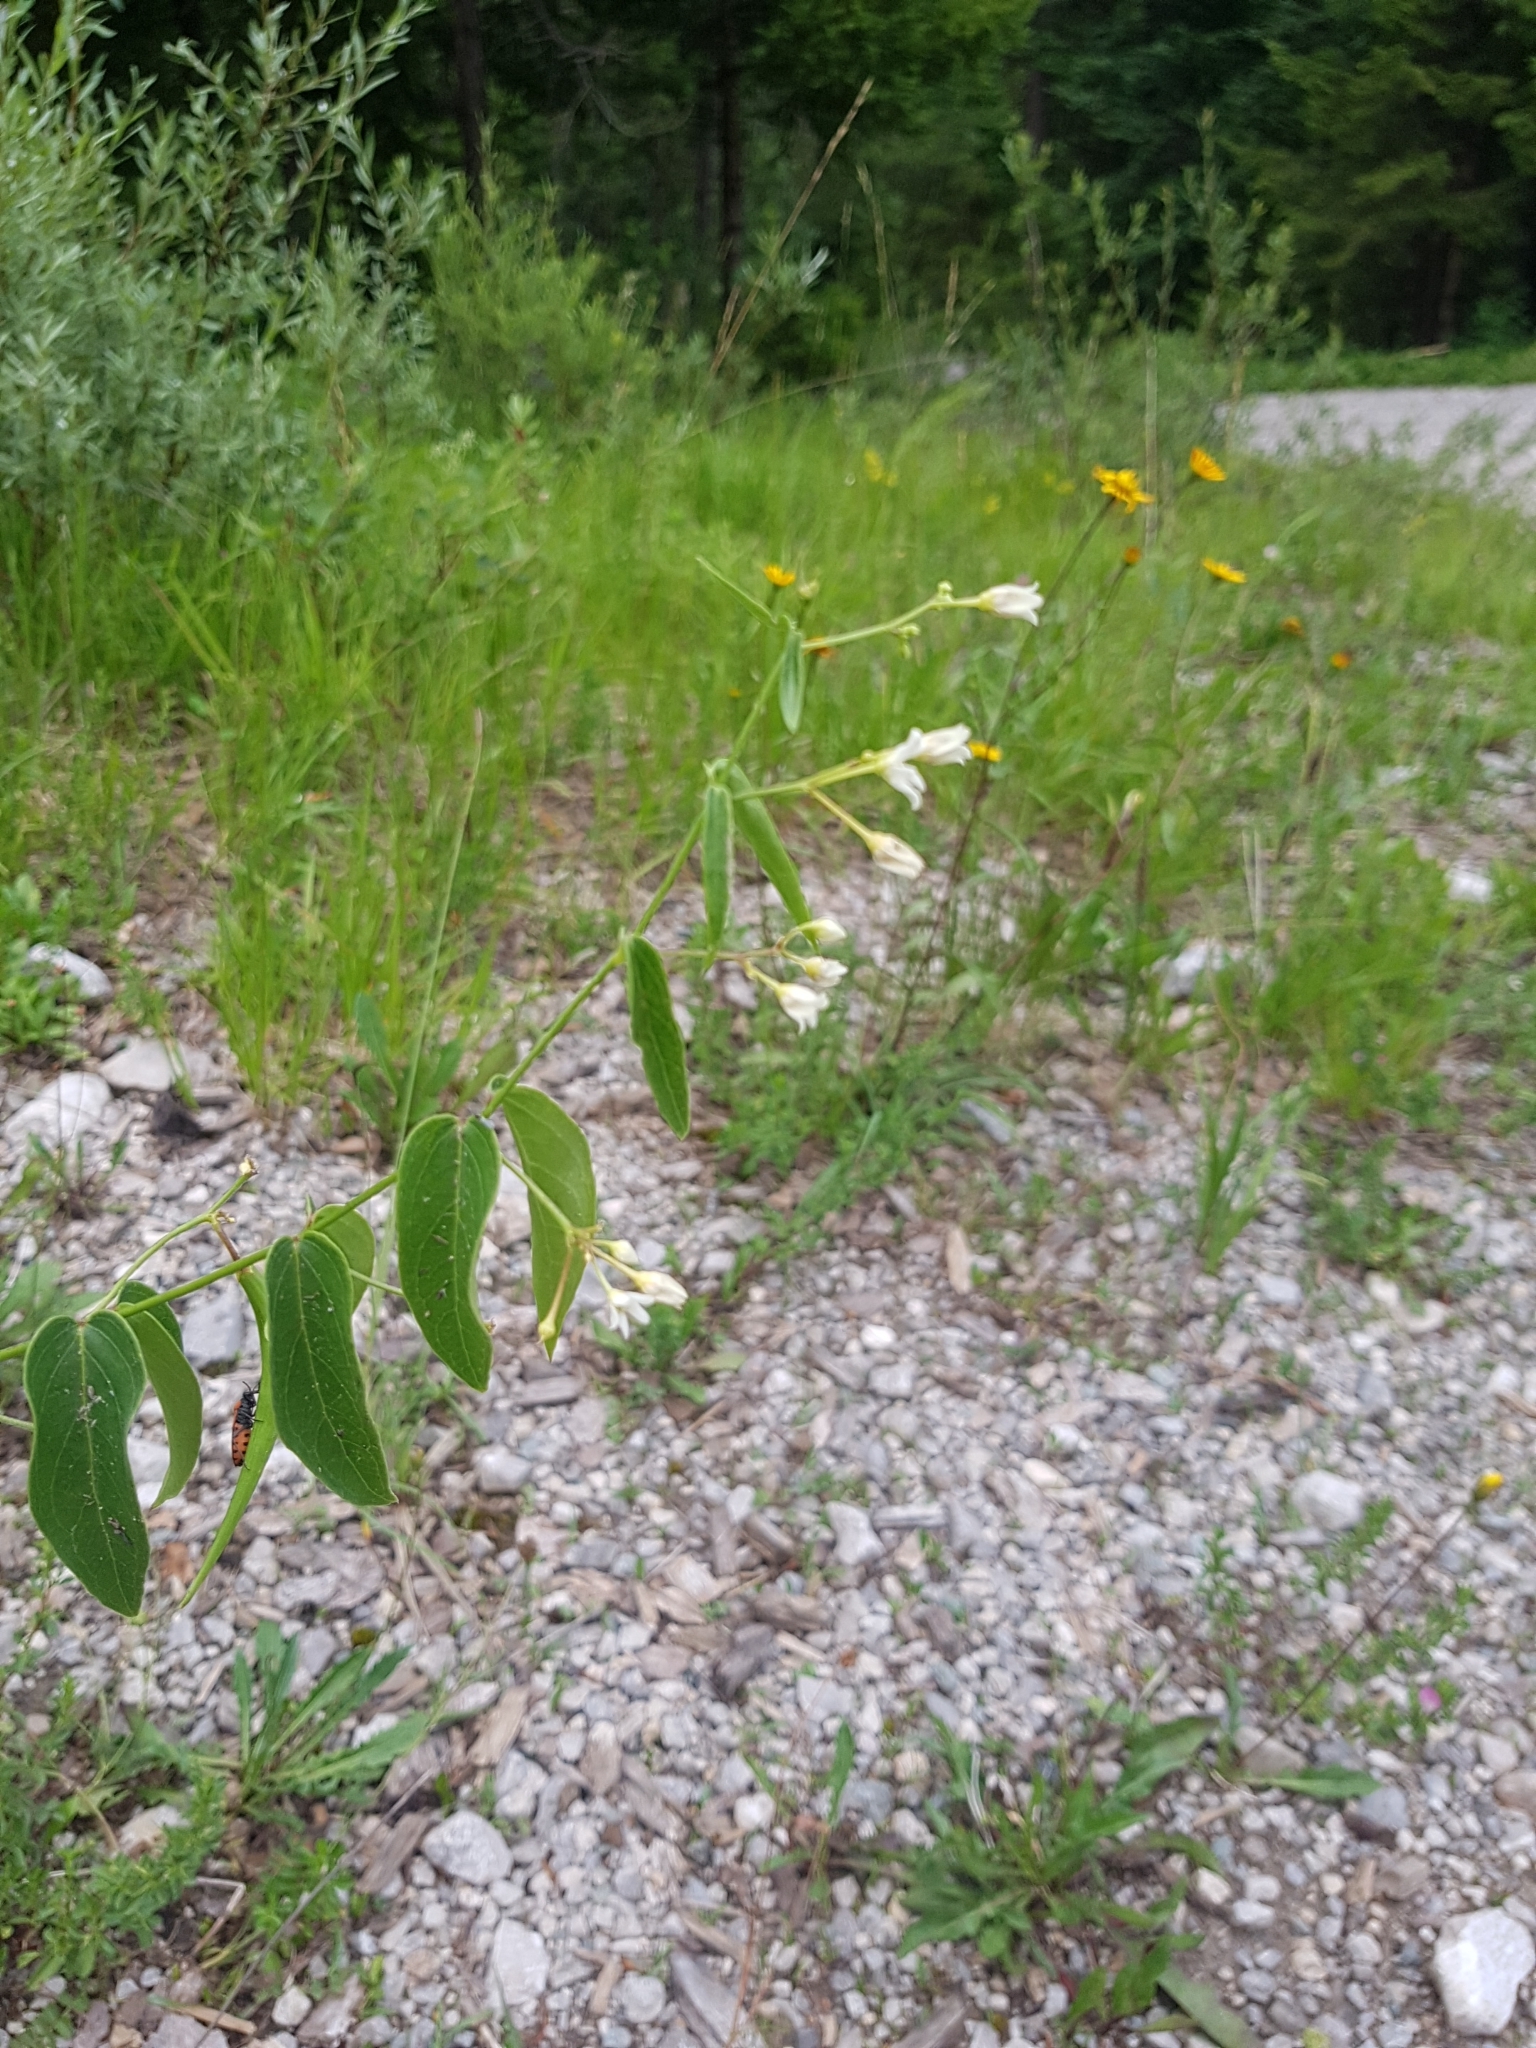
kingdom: Plantae
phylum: Tracheophyta
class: Magnoliopsida
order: Gentianales
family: Apocynaceae
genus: Vincetoxicum
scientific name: Vincetoxicum hirundinaria
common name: White swallowwort
